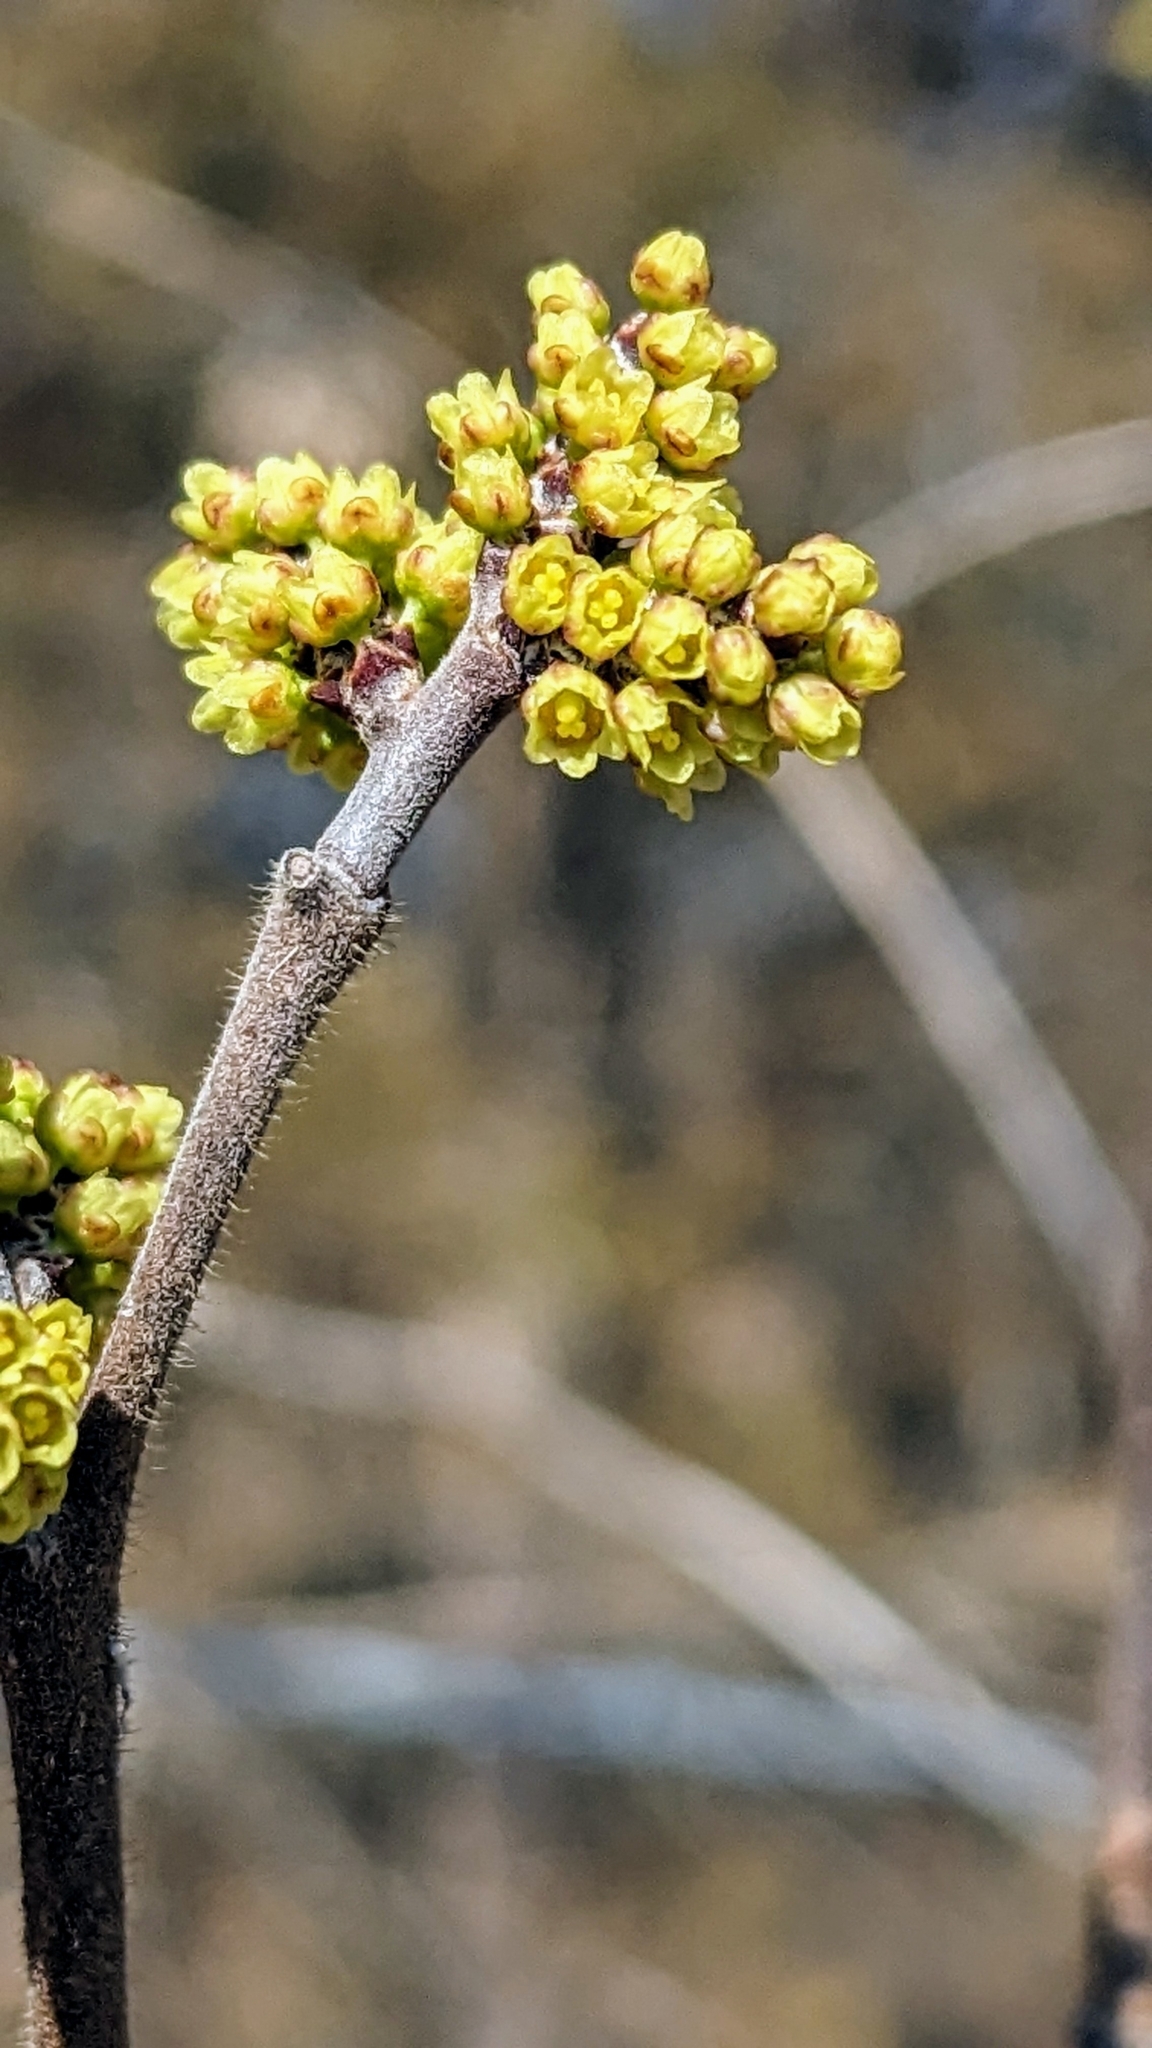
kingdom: Plantae
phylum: Tracheophyta
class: Magnoliopsida
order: Sapindales
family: Anacardiaceae
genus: Rhus
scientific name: Rhus aromatica
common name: Aromatic sumac
